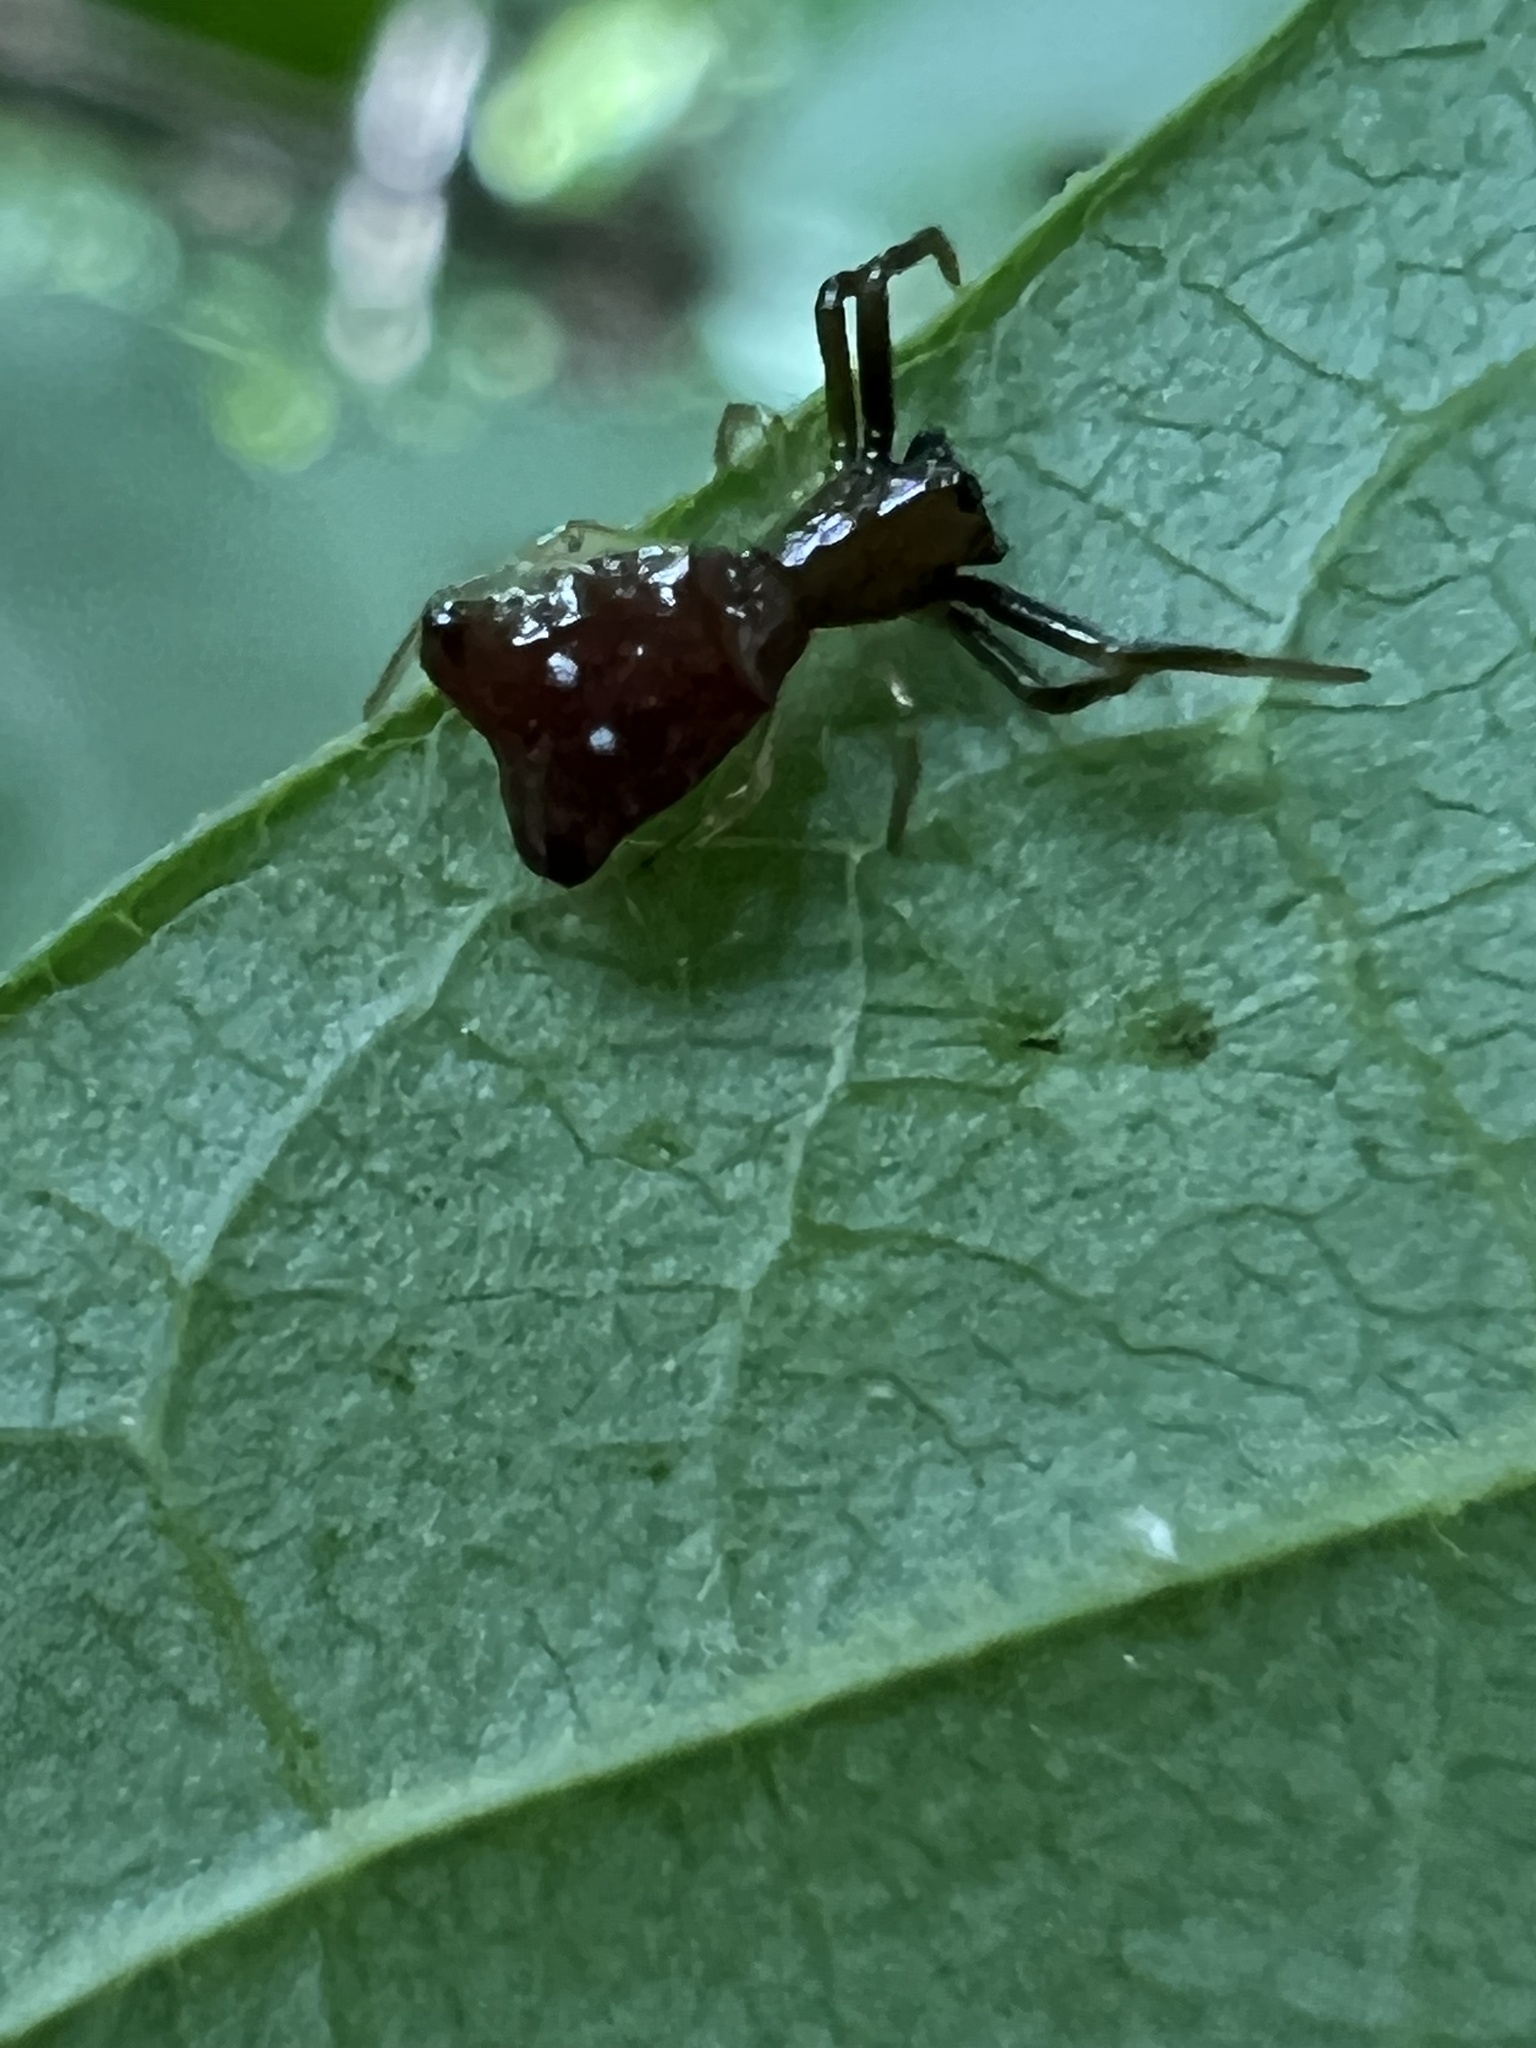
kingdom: Animalia
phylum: Arthropoda
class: Arachnida
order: Araneae
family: Araneidae
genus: Micrathena
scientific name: Micrathena sagittata
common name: Orb weavers
